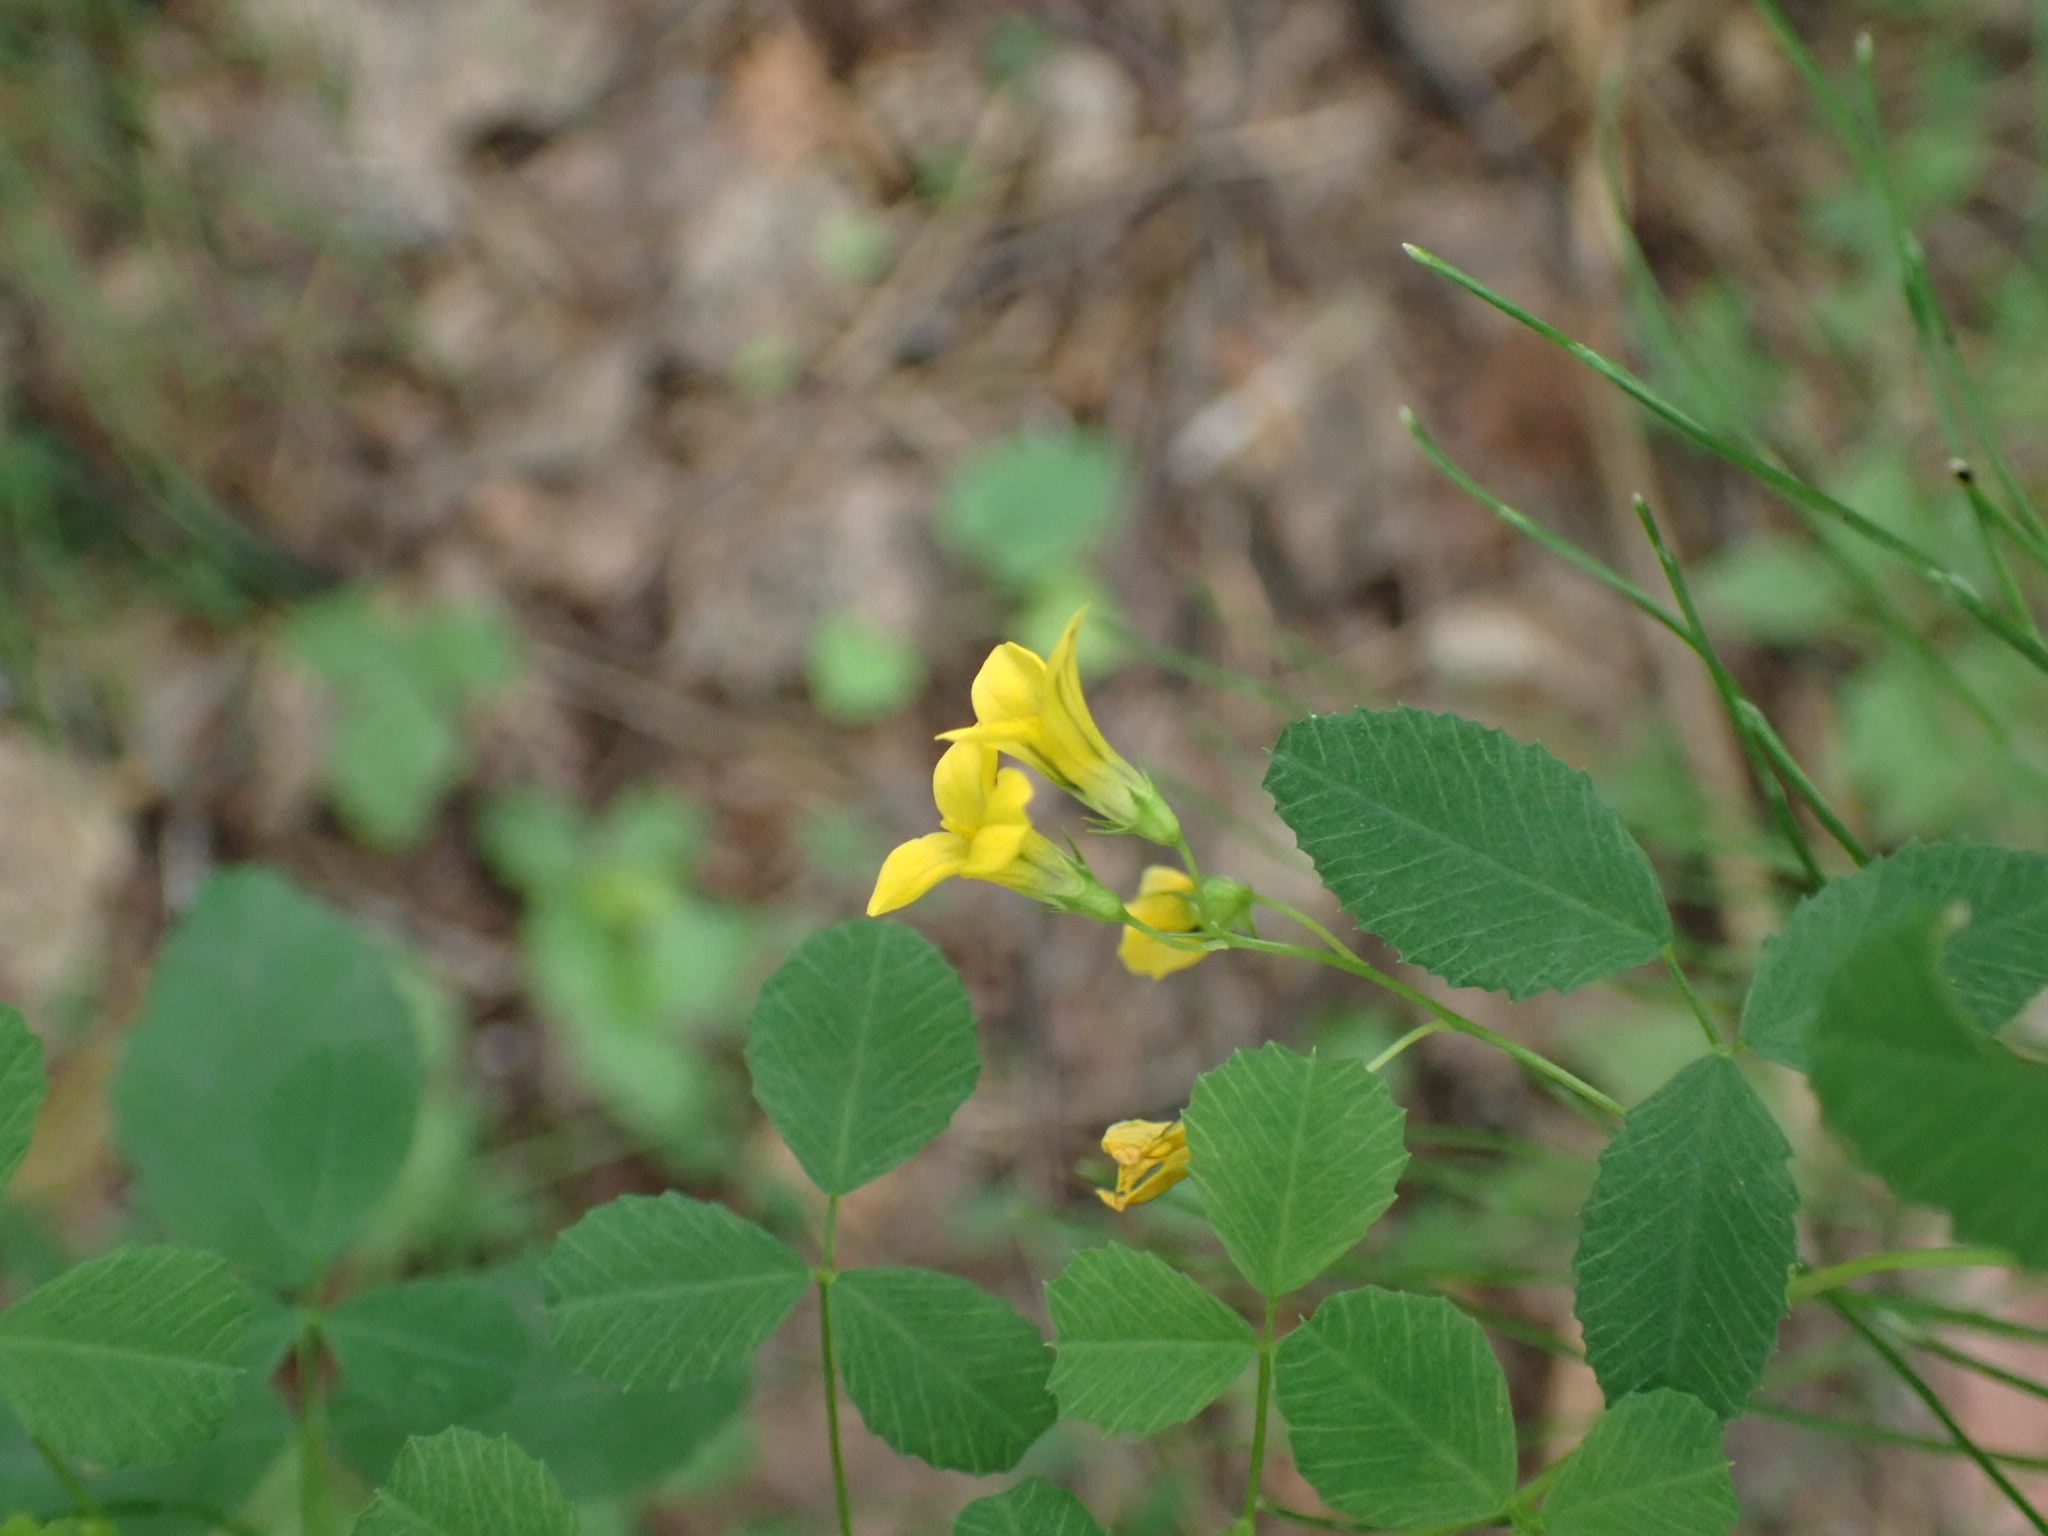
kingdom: Plantae
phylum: Tracheophyta
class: Magnoliopsida
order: Fabales
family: Fabaceae
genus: Medicago
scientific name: Medicago platycarpos
